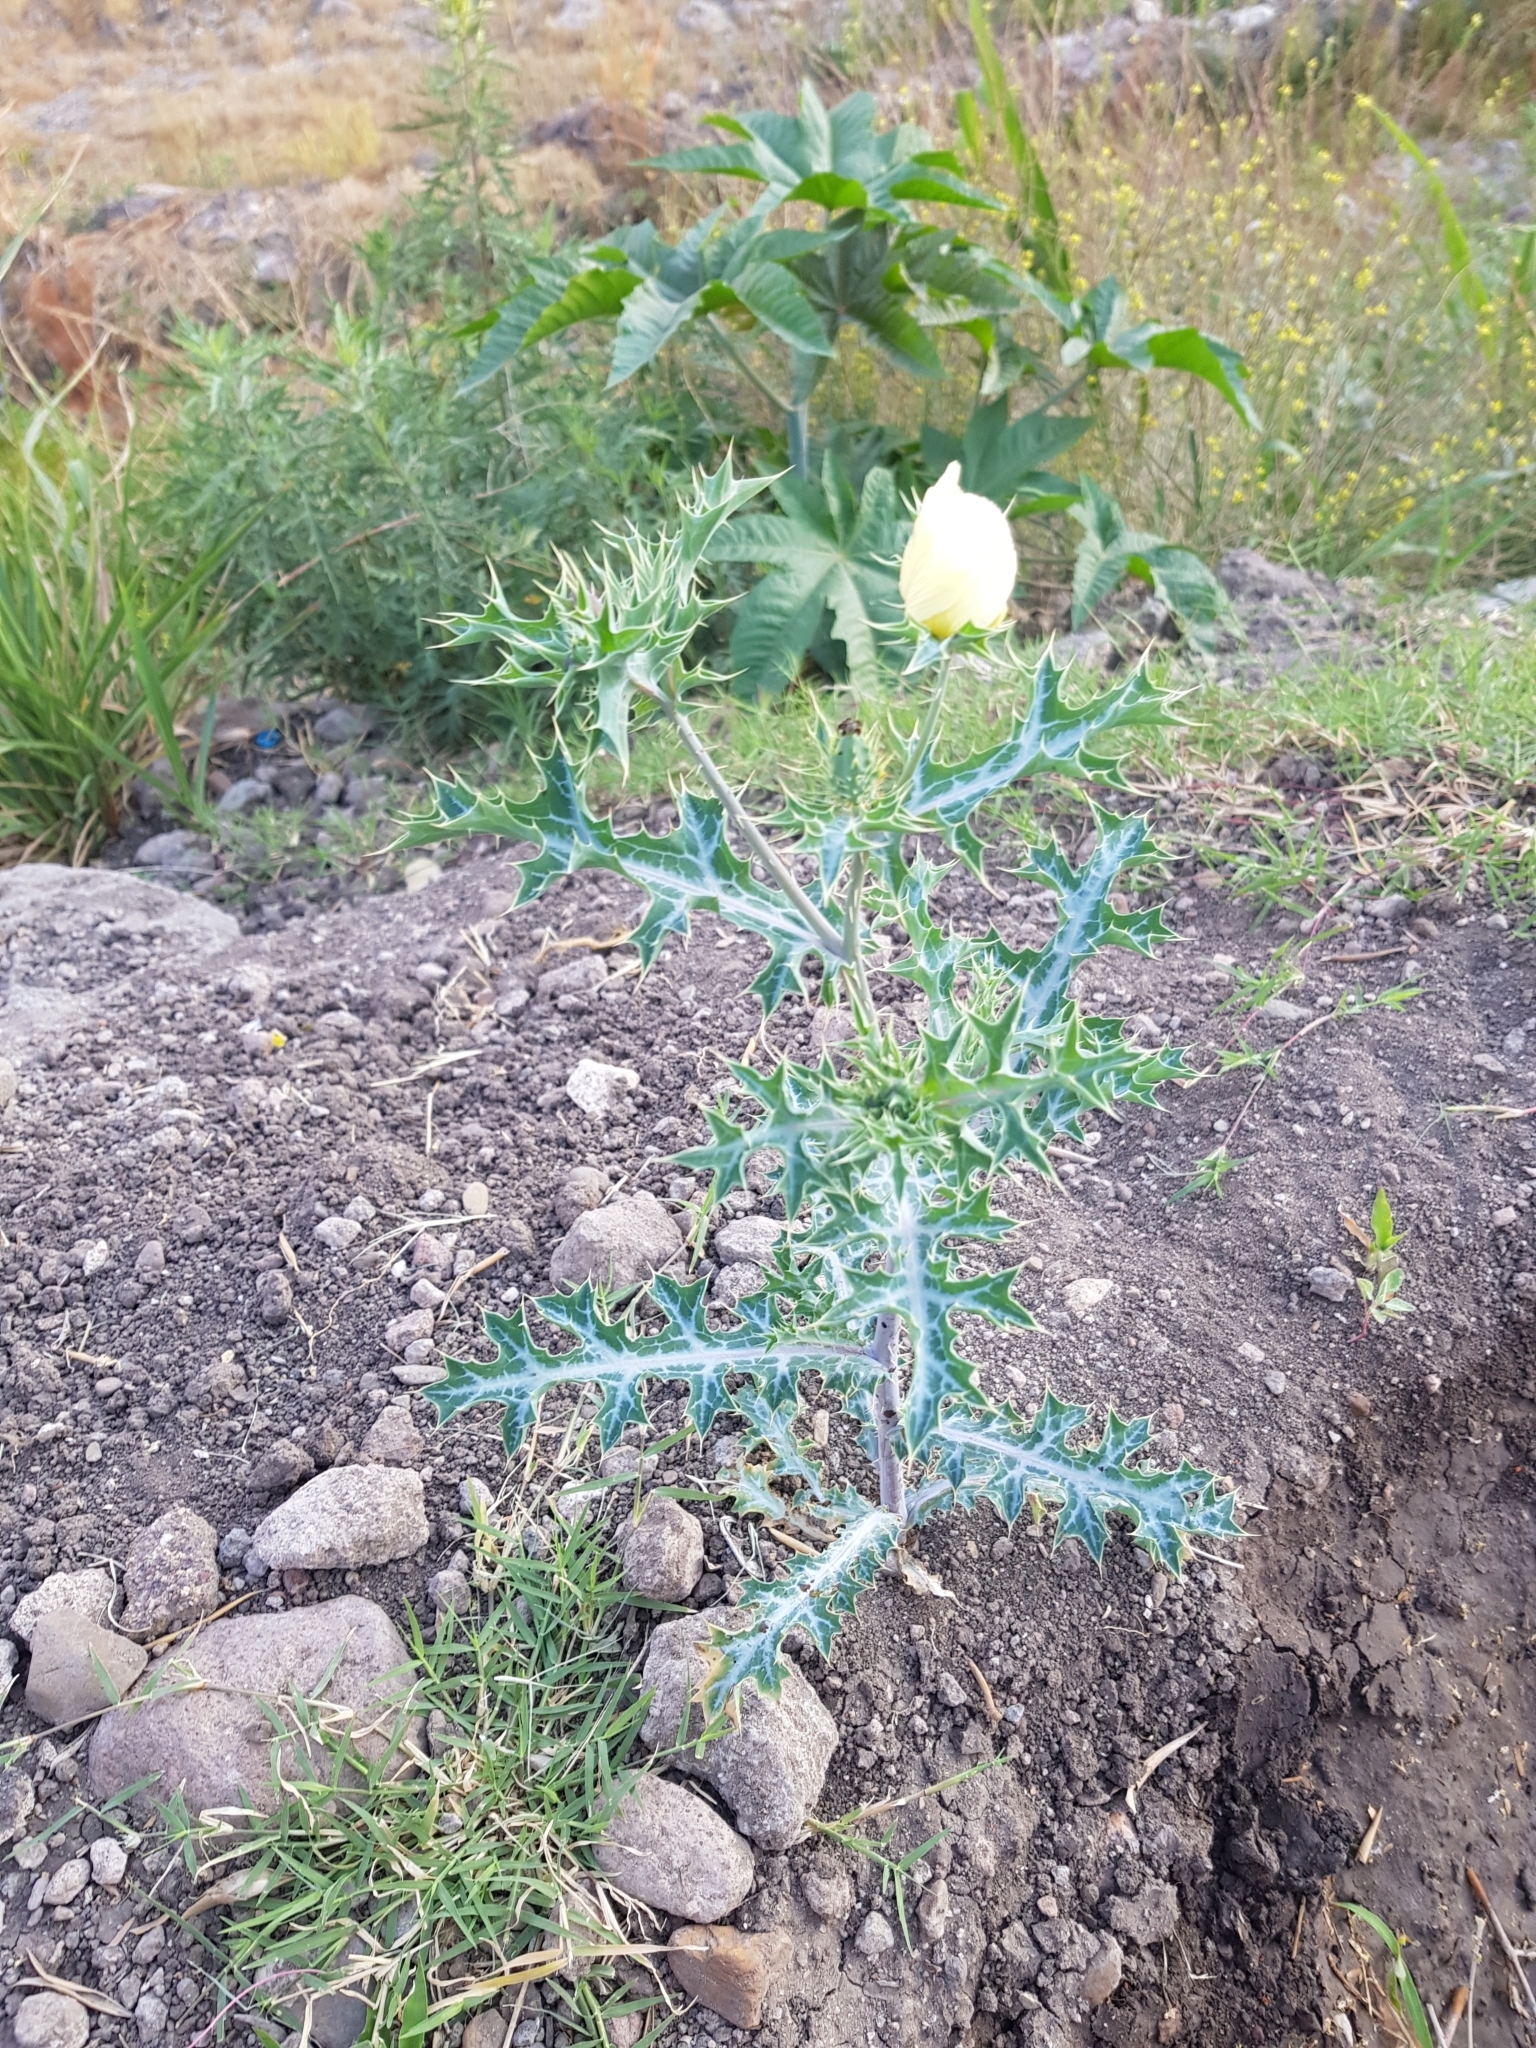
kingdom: Plantae
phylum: Tracheophyta
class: Magnoliopsida
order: Ranunculales
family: Papaveraceae
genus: Argemone
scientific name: Argemone ochroleuca
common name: White-flower mexican-poppy
